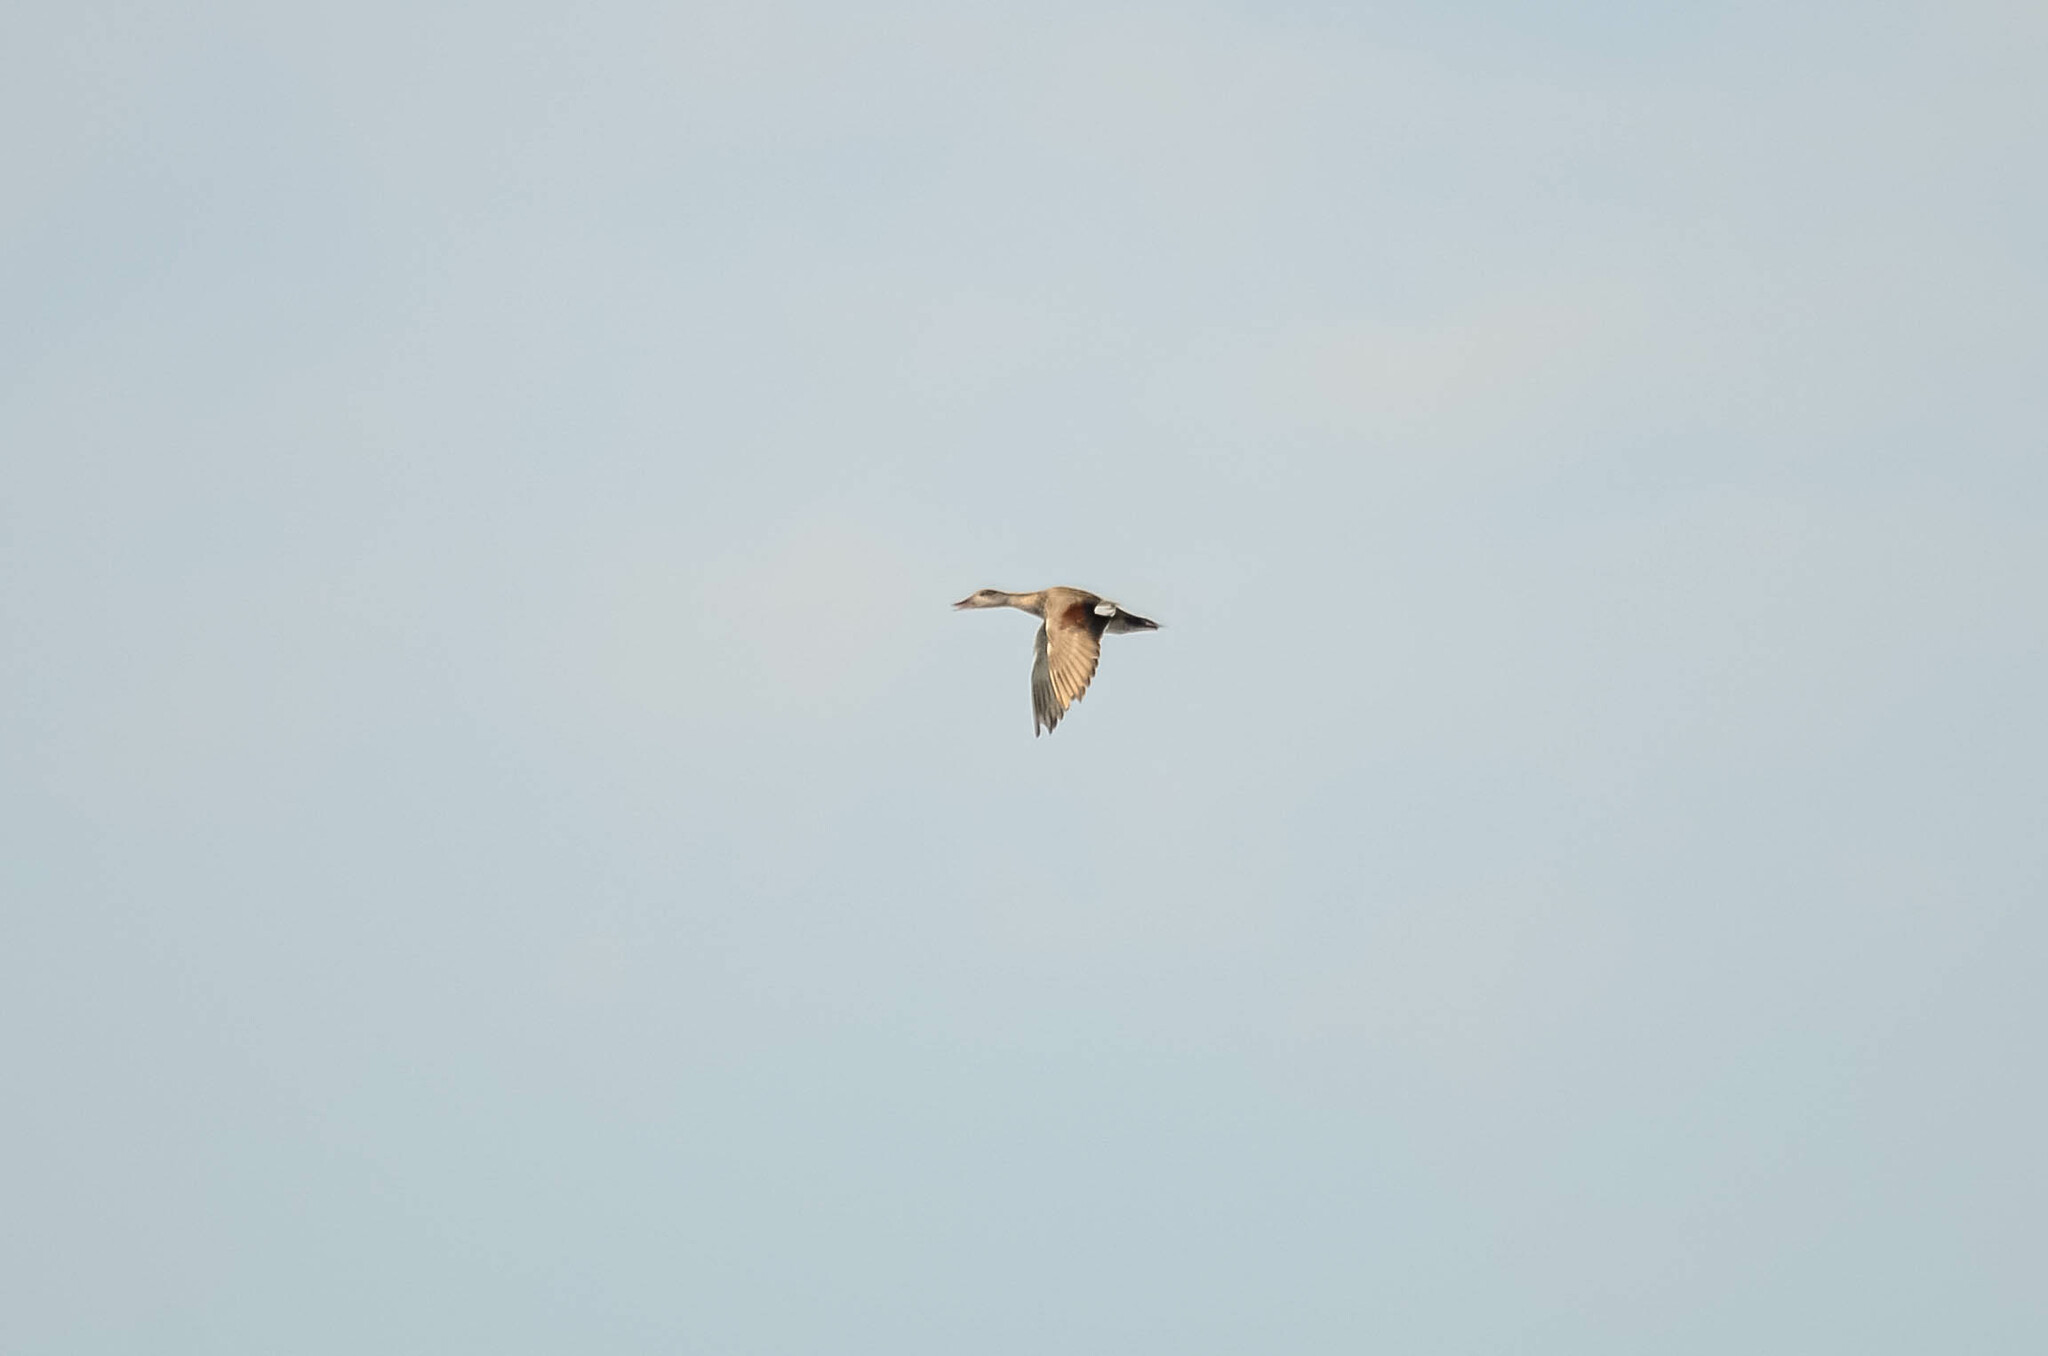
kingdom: Animalia
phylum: Chordata
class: Aves
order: Anseriformes
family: Anatidae
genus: Mareca
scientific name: Mareca strepera
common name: Gadwall
